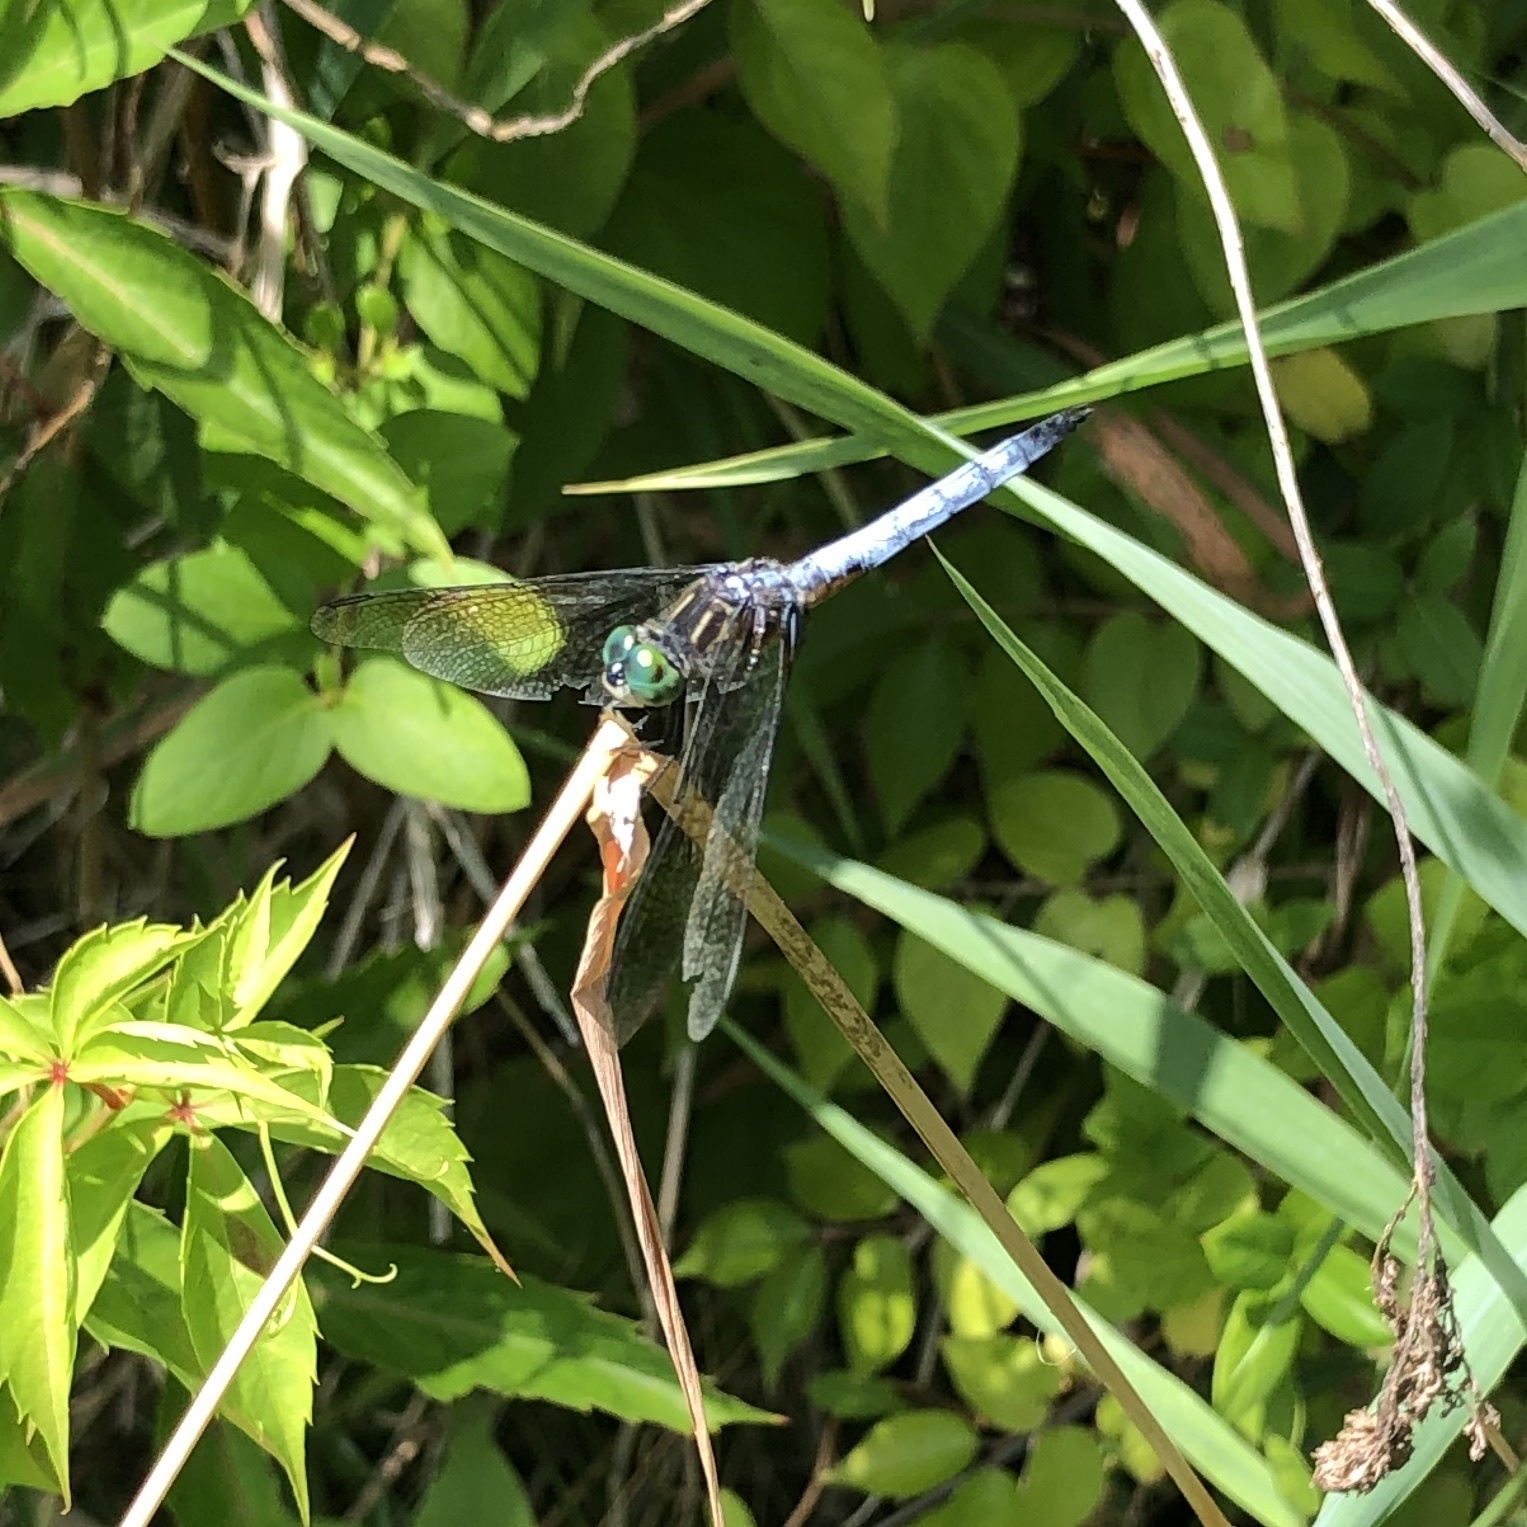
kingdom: Animalia
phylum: Arthropoda
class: Insecta
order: Odonata
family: Libellulidae
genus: Pachydiplax
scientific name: Pachydiplax longipennis
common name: Blue dasher
